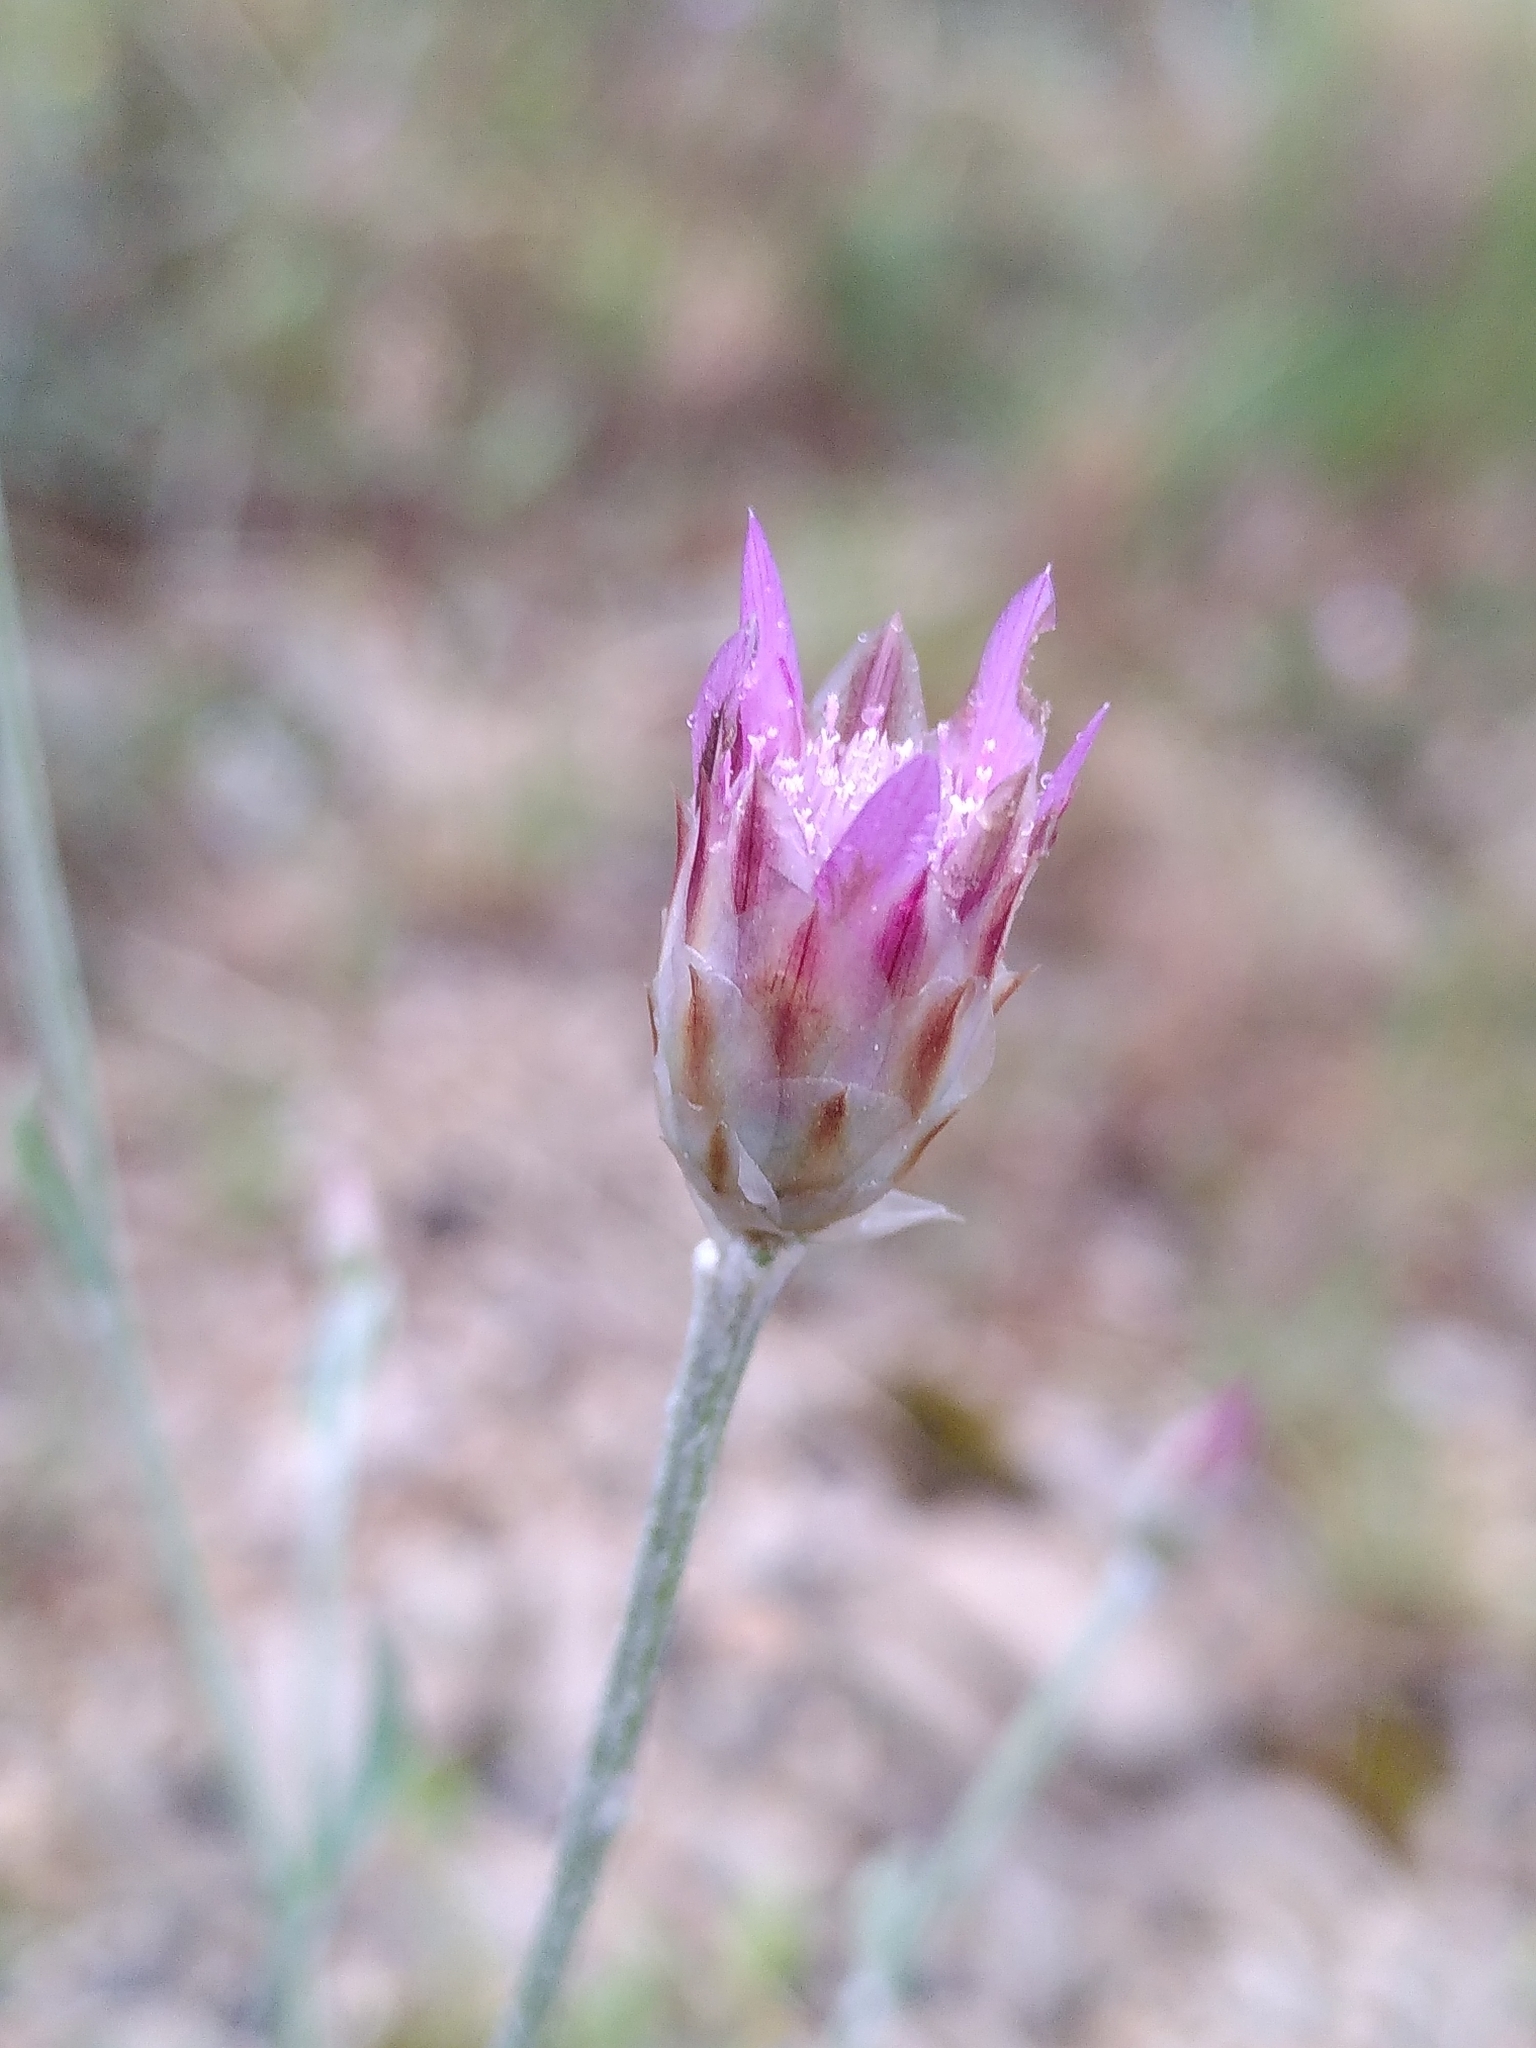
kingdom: Plantae
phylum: Tracheophyta
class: Magnoliopsida
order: Asterales
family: Asteraceae
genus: Xeranthemum
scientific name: Xeranthemum inapertum
